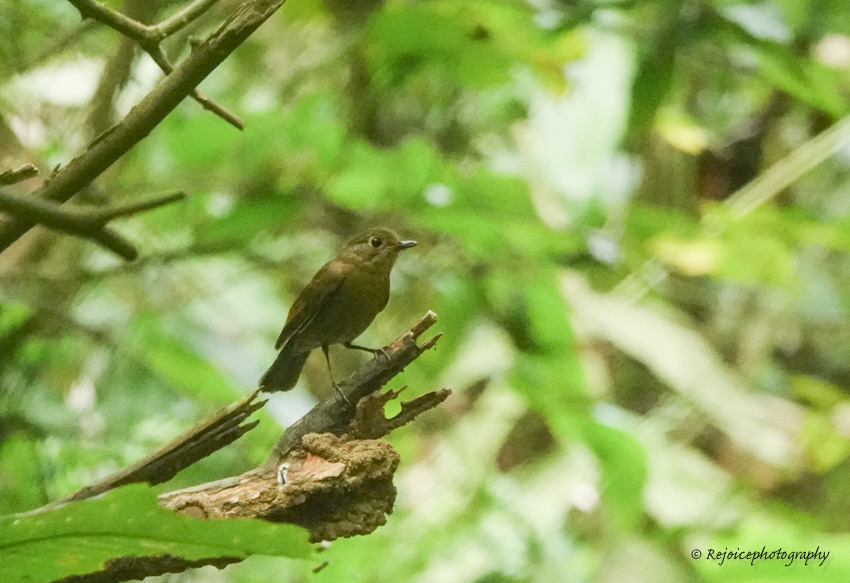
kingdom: Animalia
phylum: Chordata
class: Aves
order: Passeriformes
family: Muscicapidae
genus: Myiomela
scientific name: Myiomela leucura
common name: White-tailed robin
